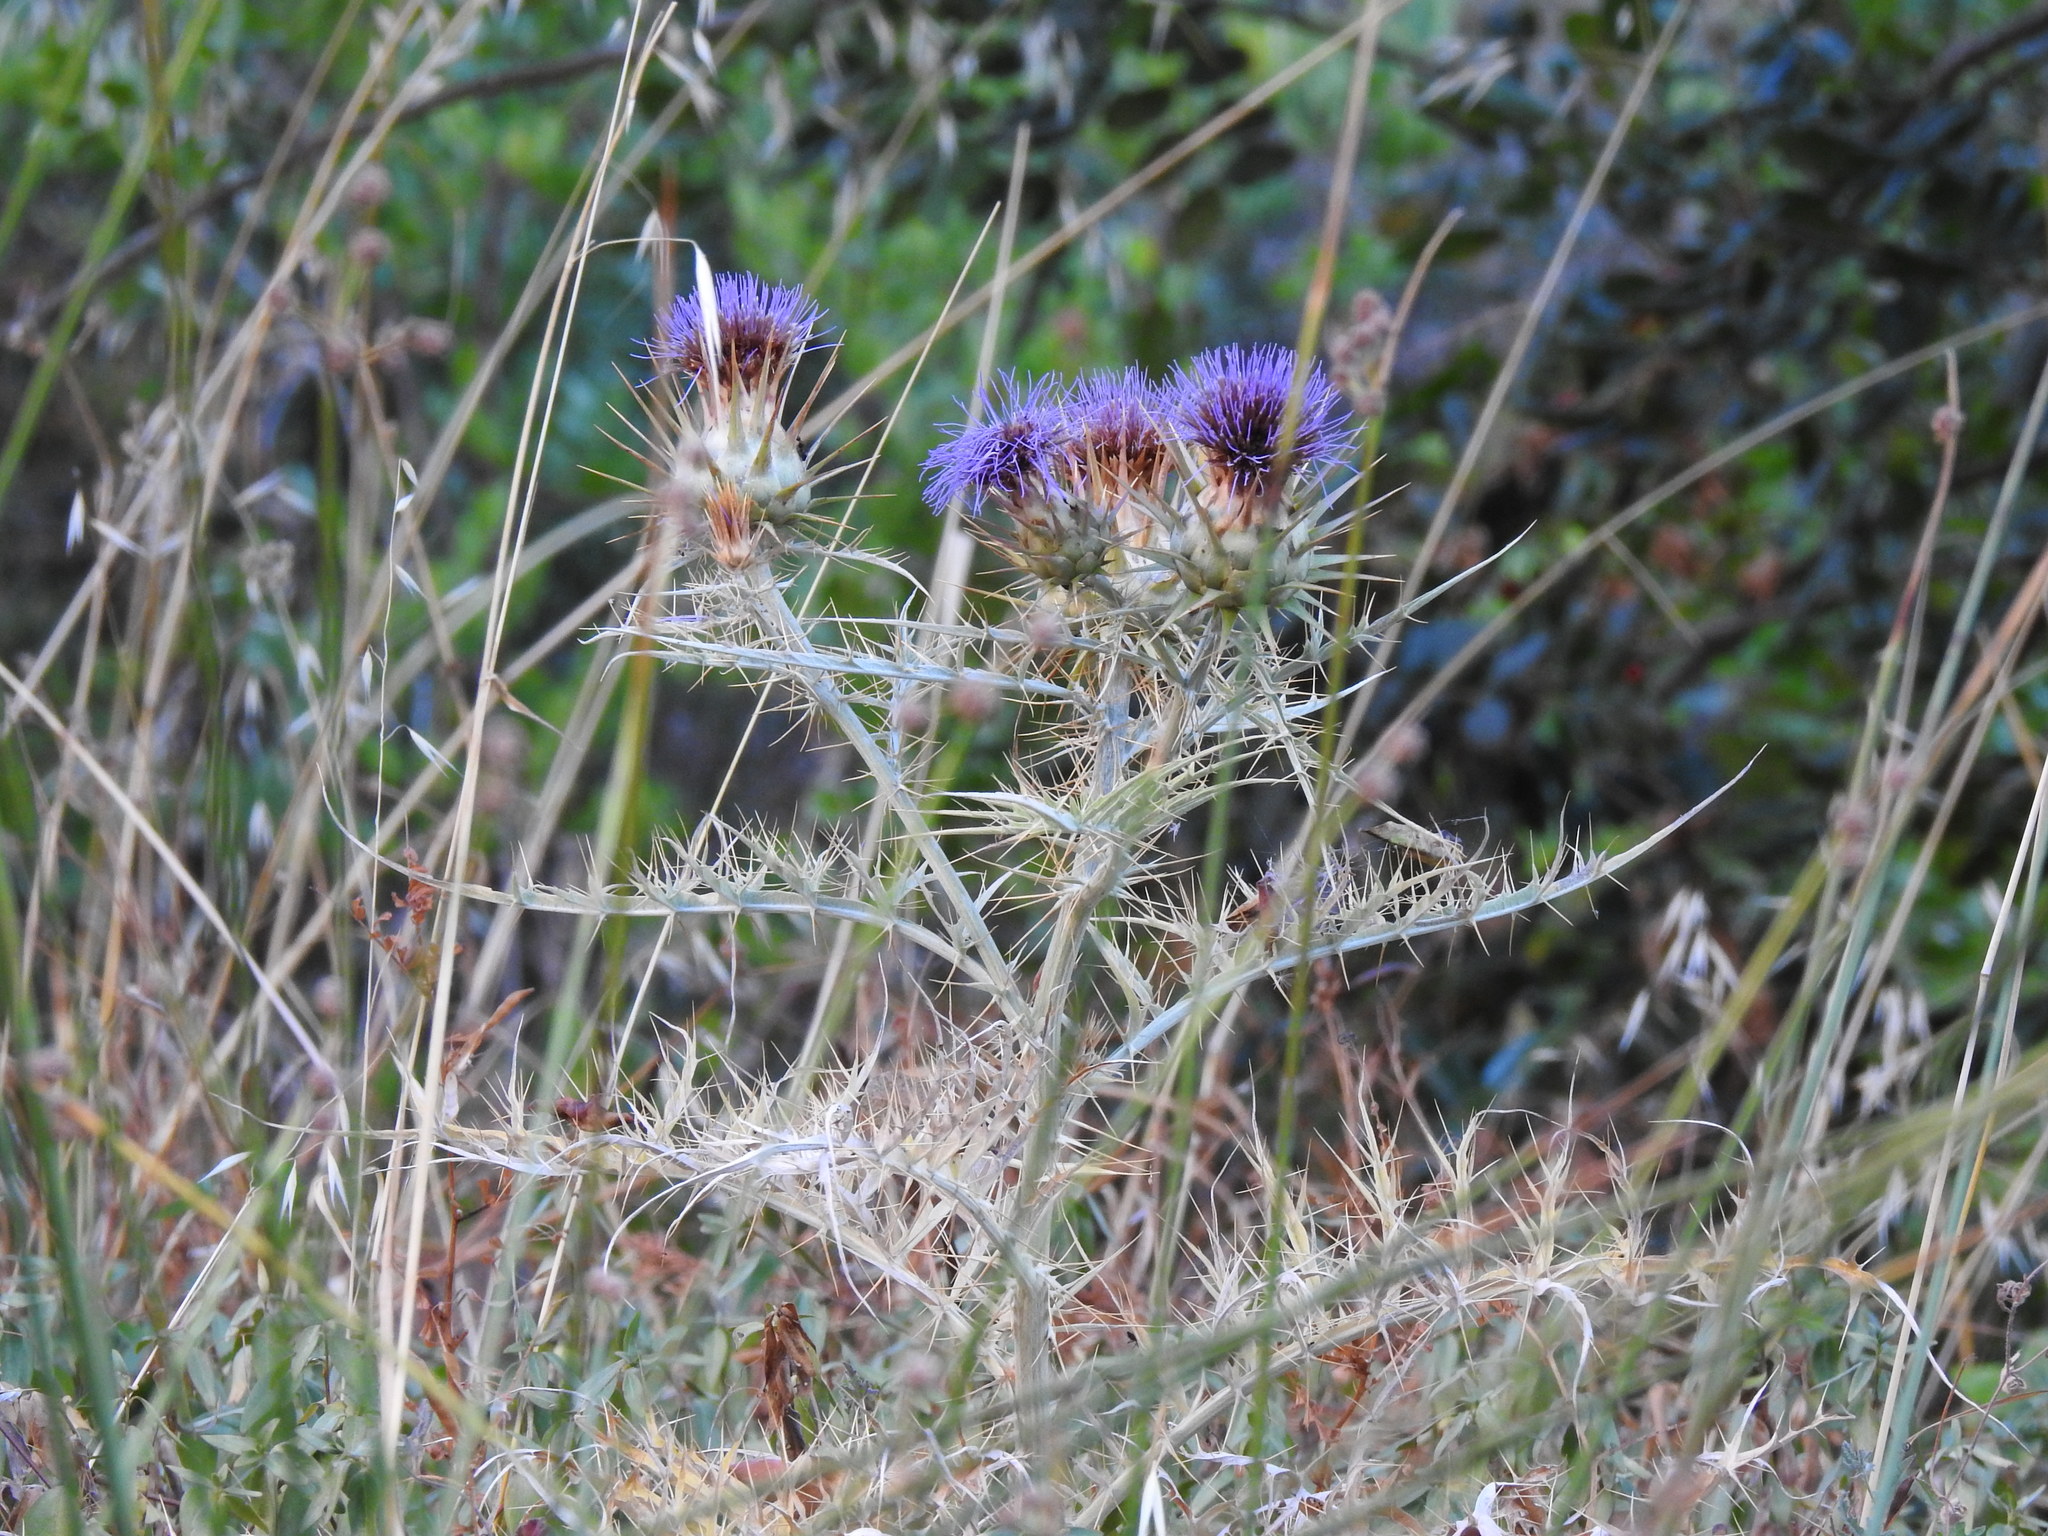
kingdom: Plantae
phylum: Tracheophyta
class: Magnoliopsida
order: Asterales
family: Asteraceae
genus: Cynara
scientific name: Cynara cardunculus
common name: Globe artichoke
